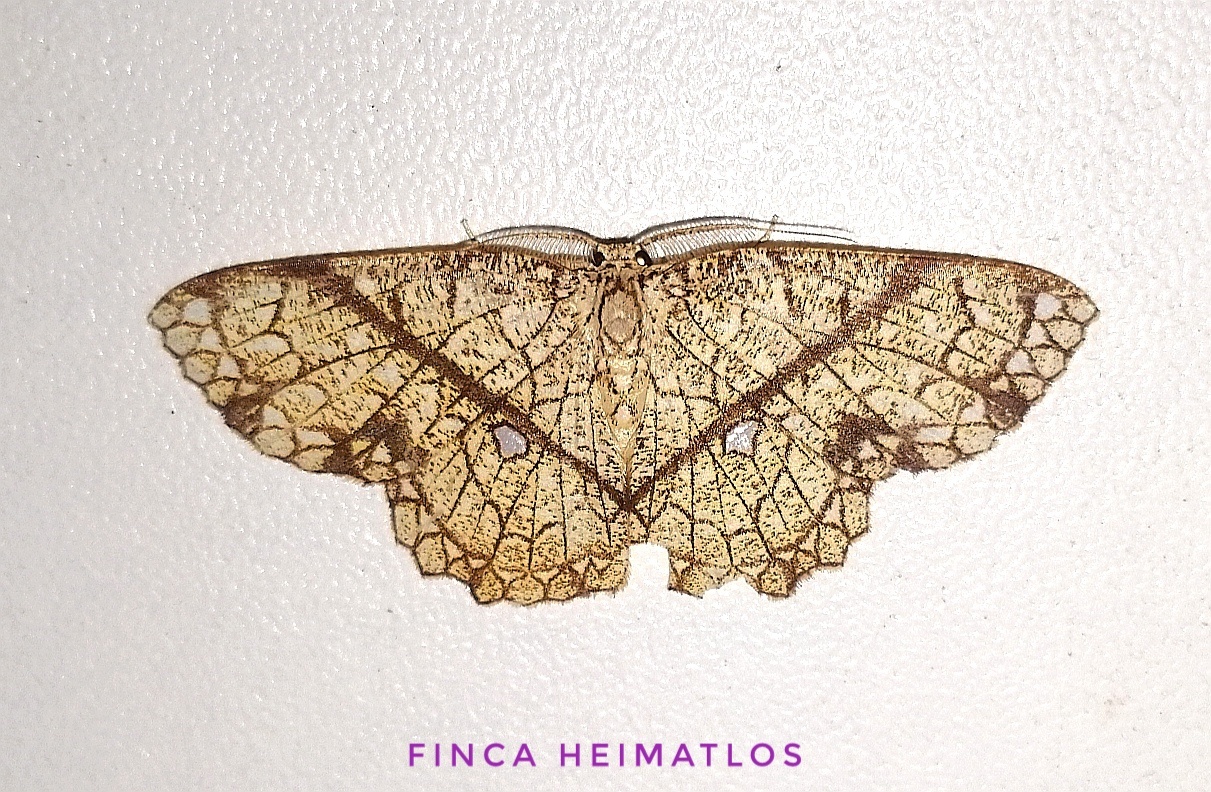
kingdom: Animalia
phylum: Arthropoda
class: Insecta
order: Lepidoptera
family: Geometridae
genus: Cyclophora
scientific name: Cyclophora insigniata
